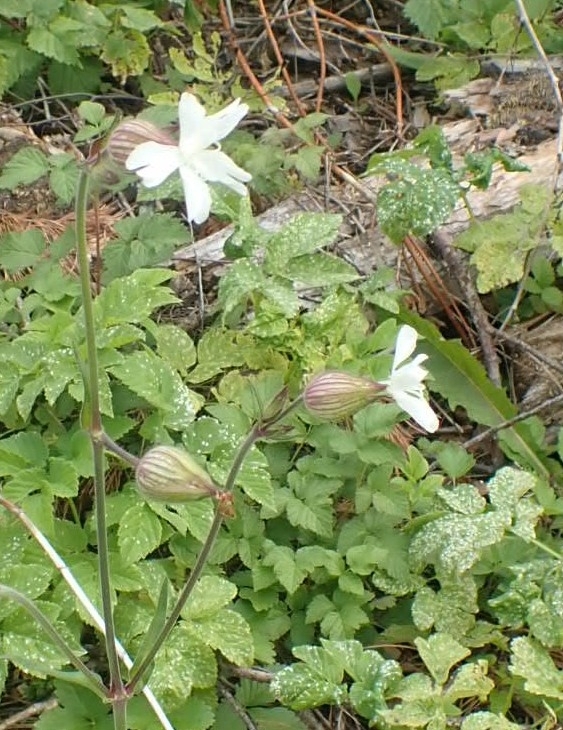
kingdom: Plantae
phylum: Tracheophyta
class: Magnoliopsida
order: Caryophyllales
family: Caryophyllaceae
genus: Silene
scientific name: Silene latifolia
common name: White campion
